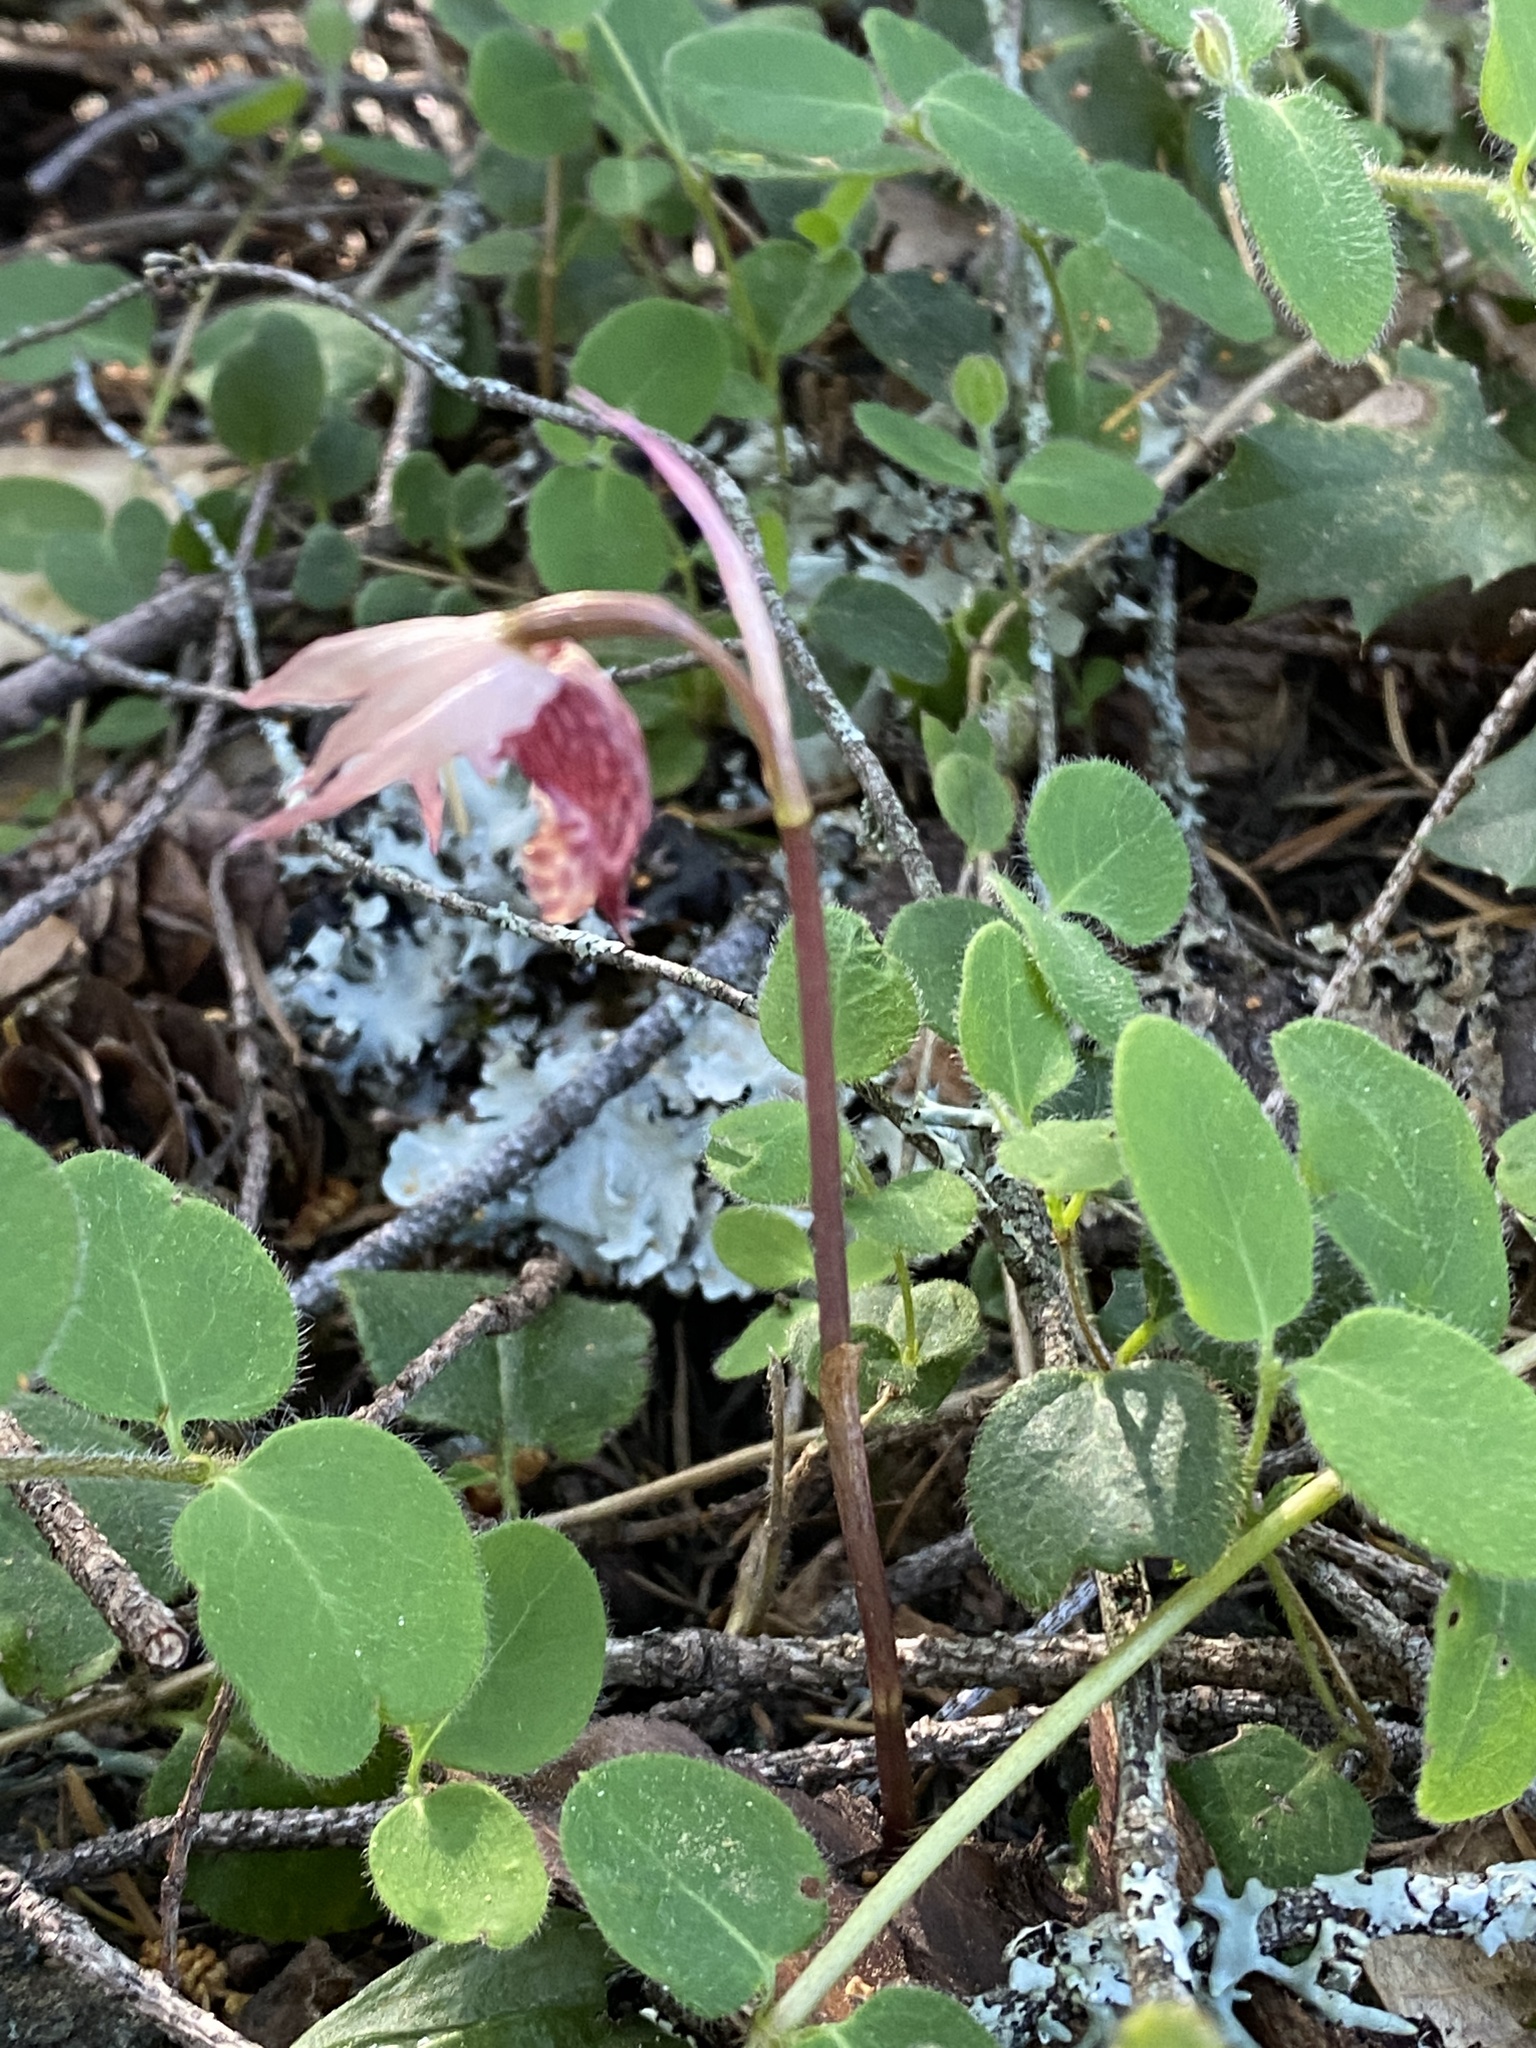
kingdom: Plantae
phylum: Tracheophyta
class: Liliopsida
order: Asparagales
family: Orchidaceae
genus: Calypso
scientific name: Calypso bulbosa
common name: Calypso
